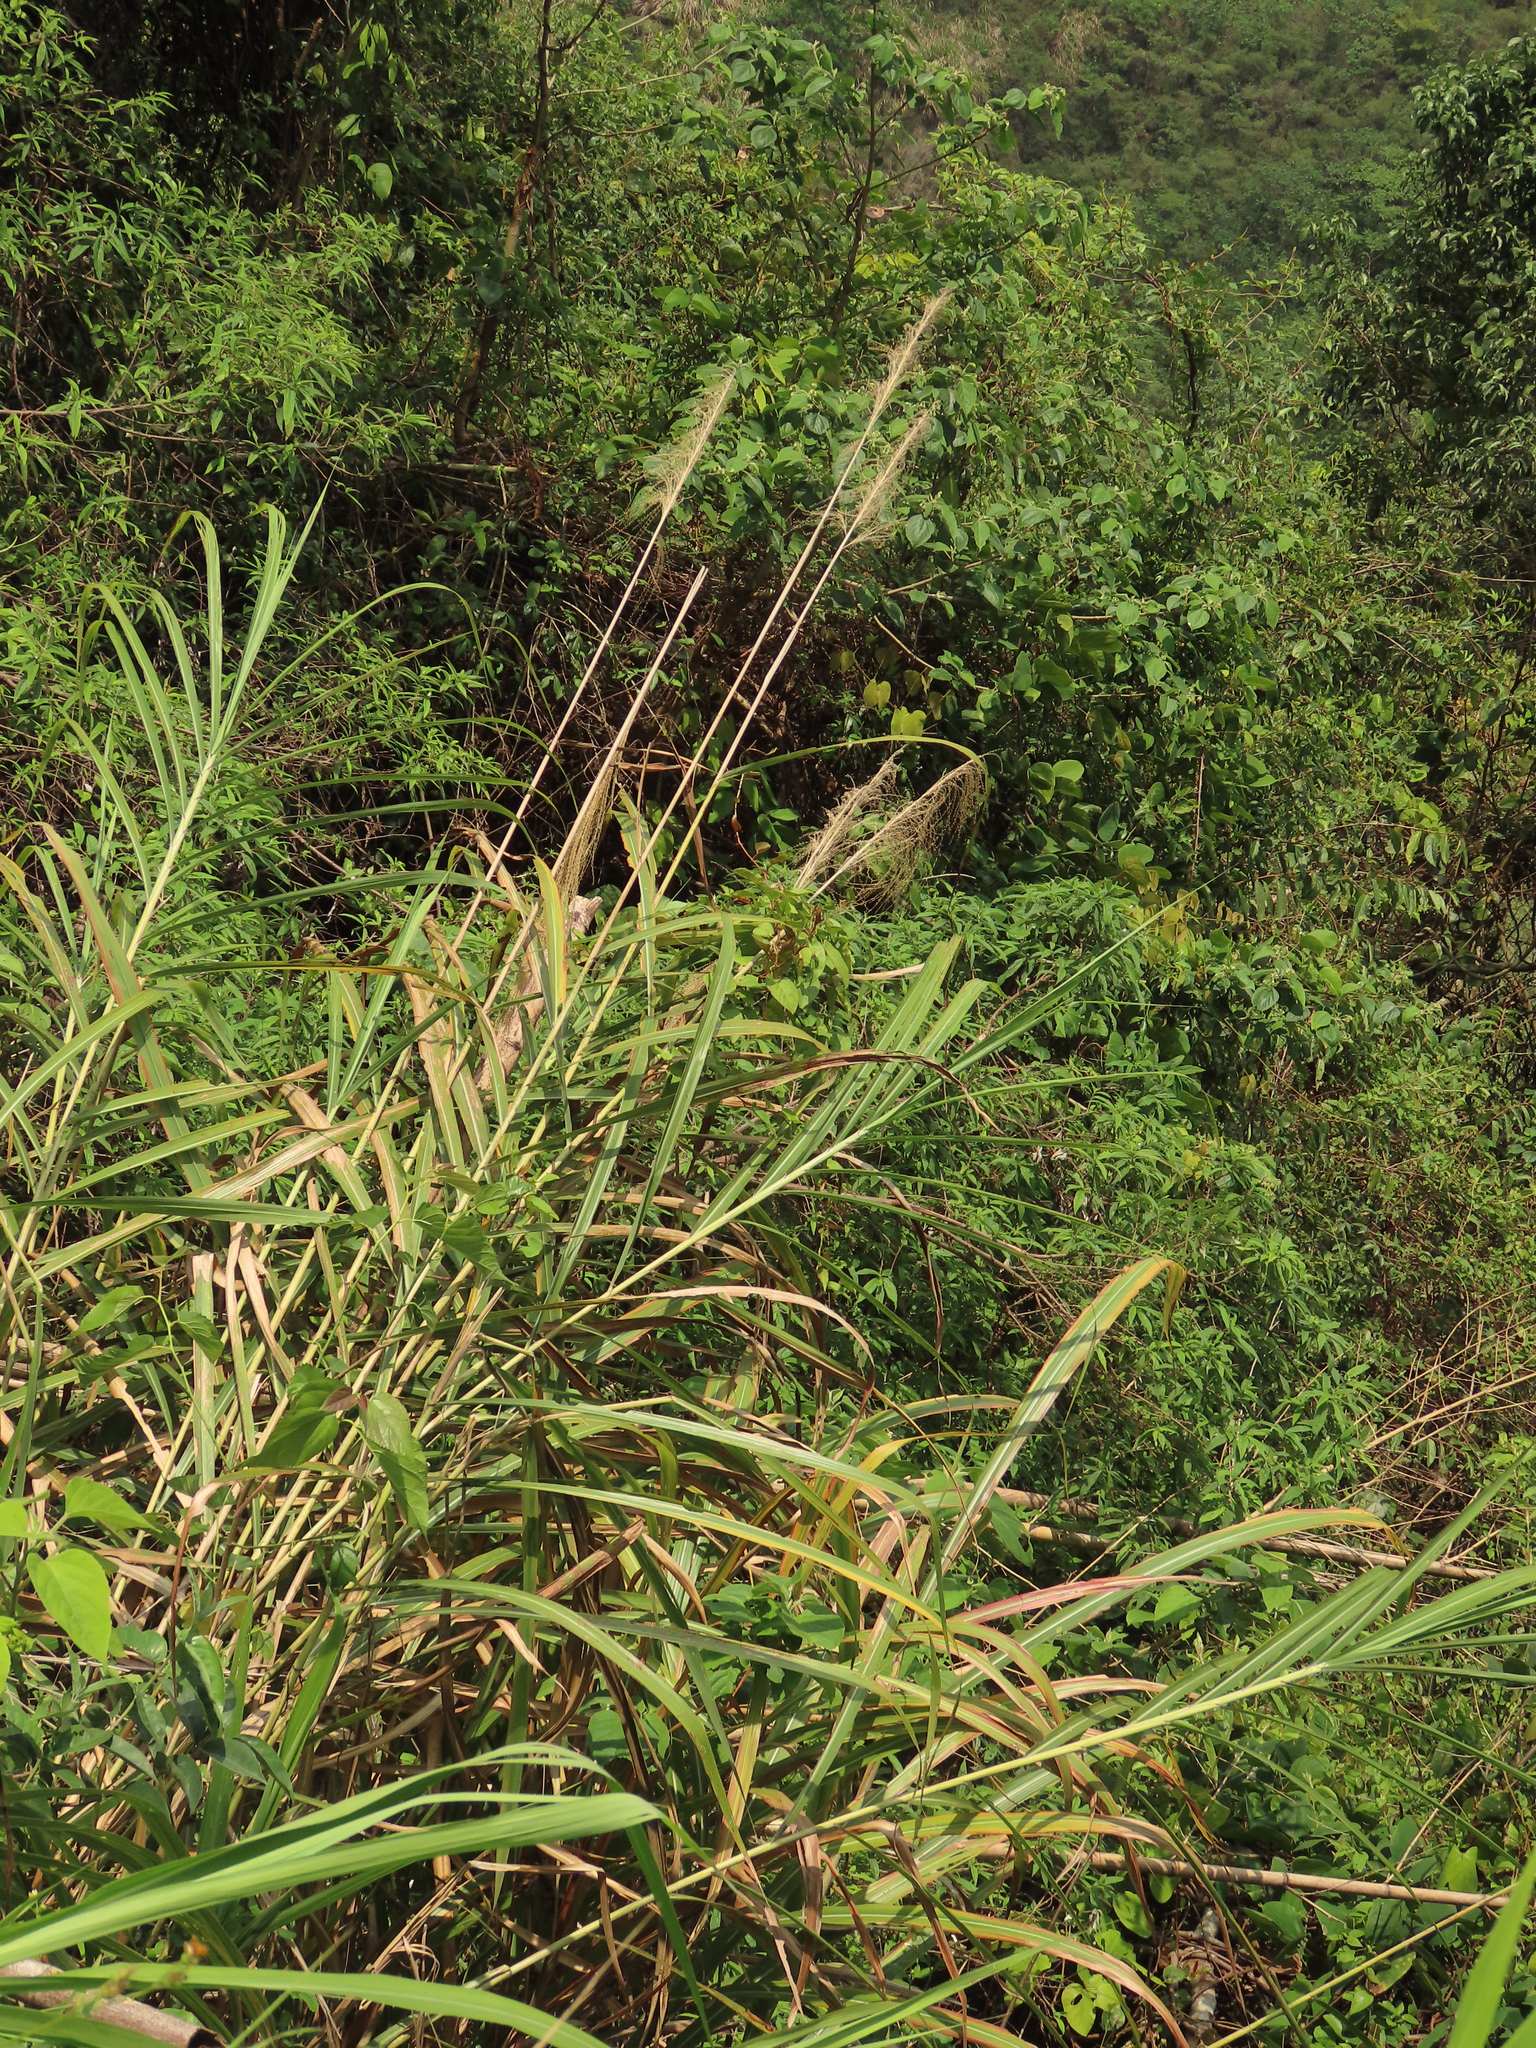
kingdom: Plantae
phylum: Tracheophyta
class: Liliopsida
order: Poales
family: Poaceae
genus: Miscanthus
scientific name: Miscanthus sinensis
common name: Chinese silvergrass
